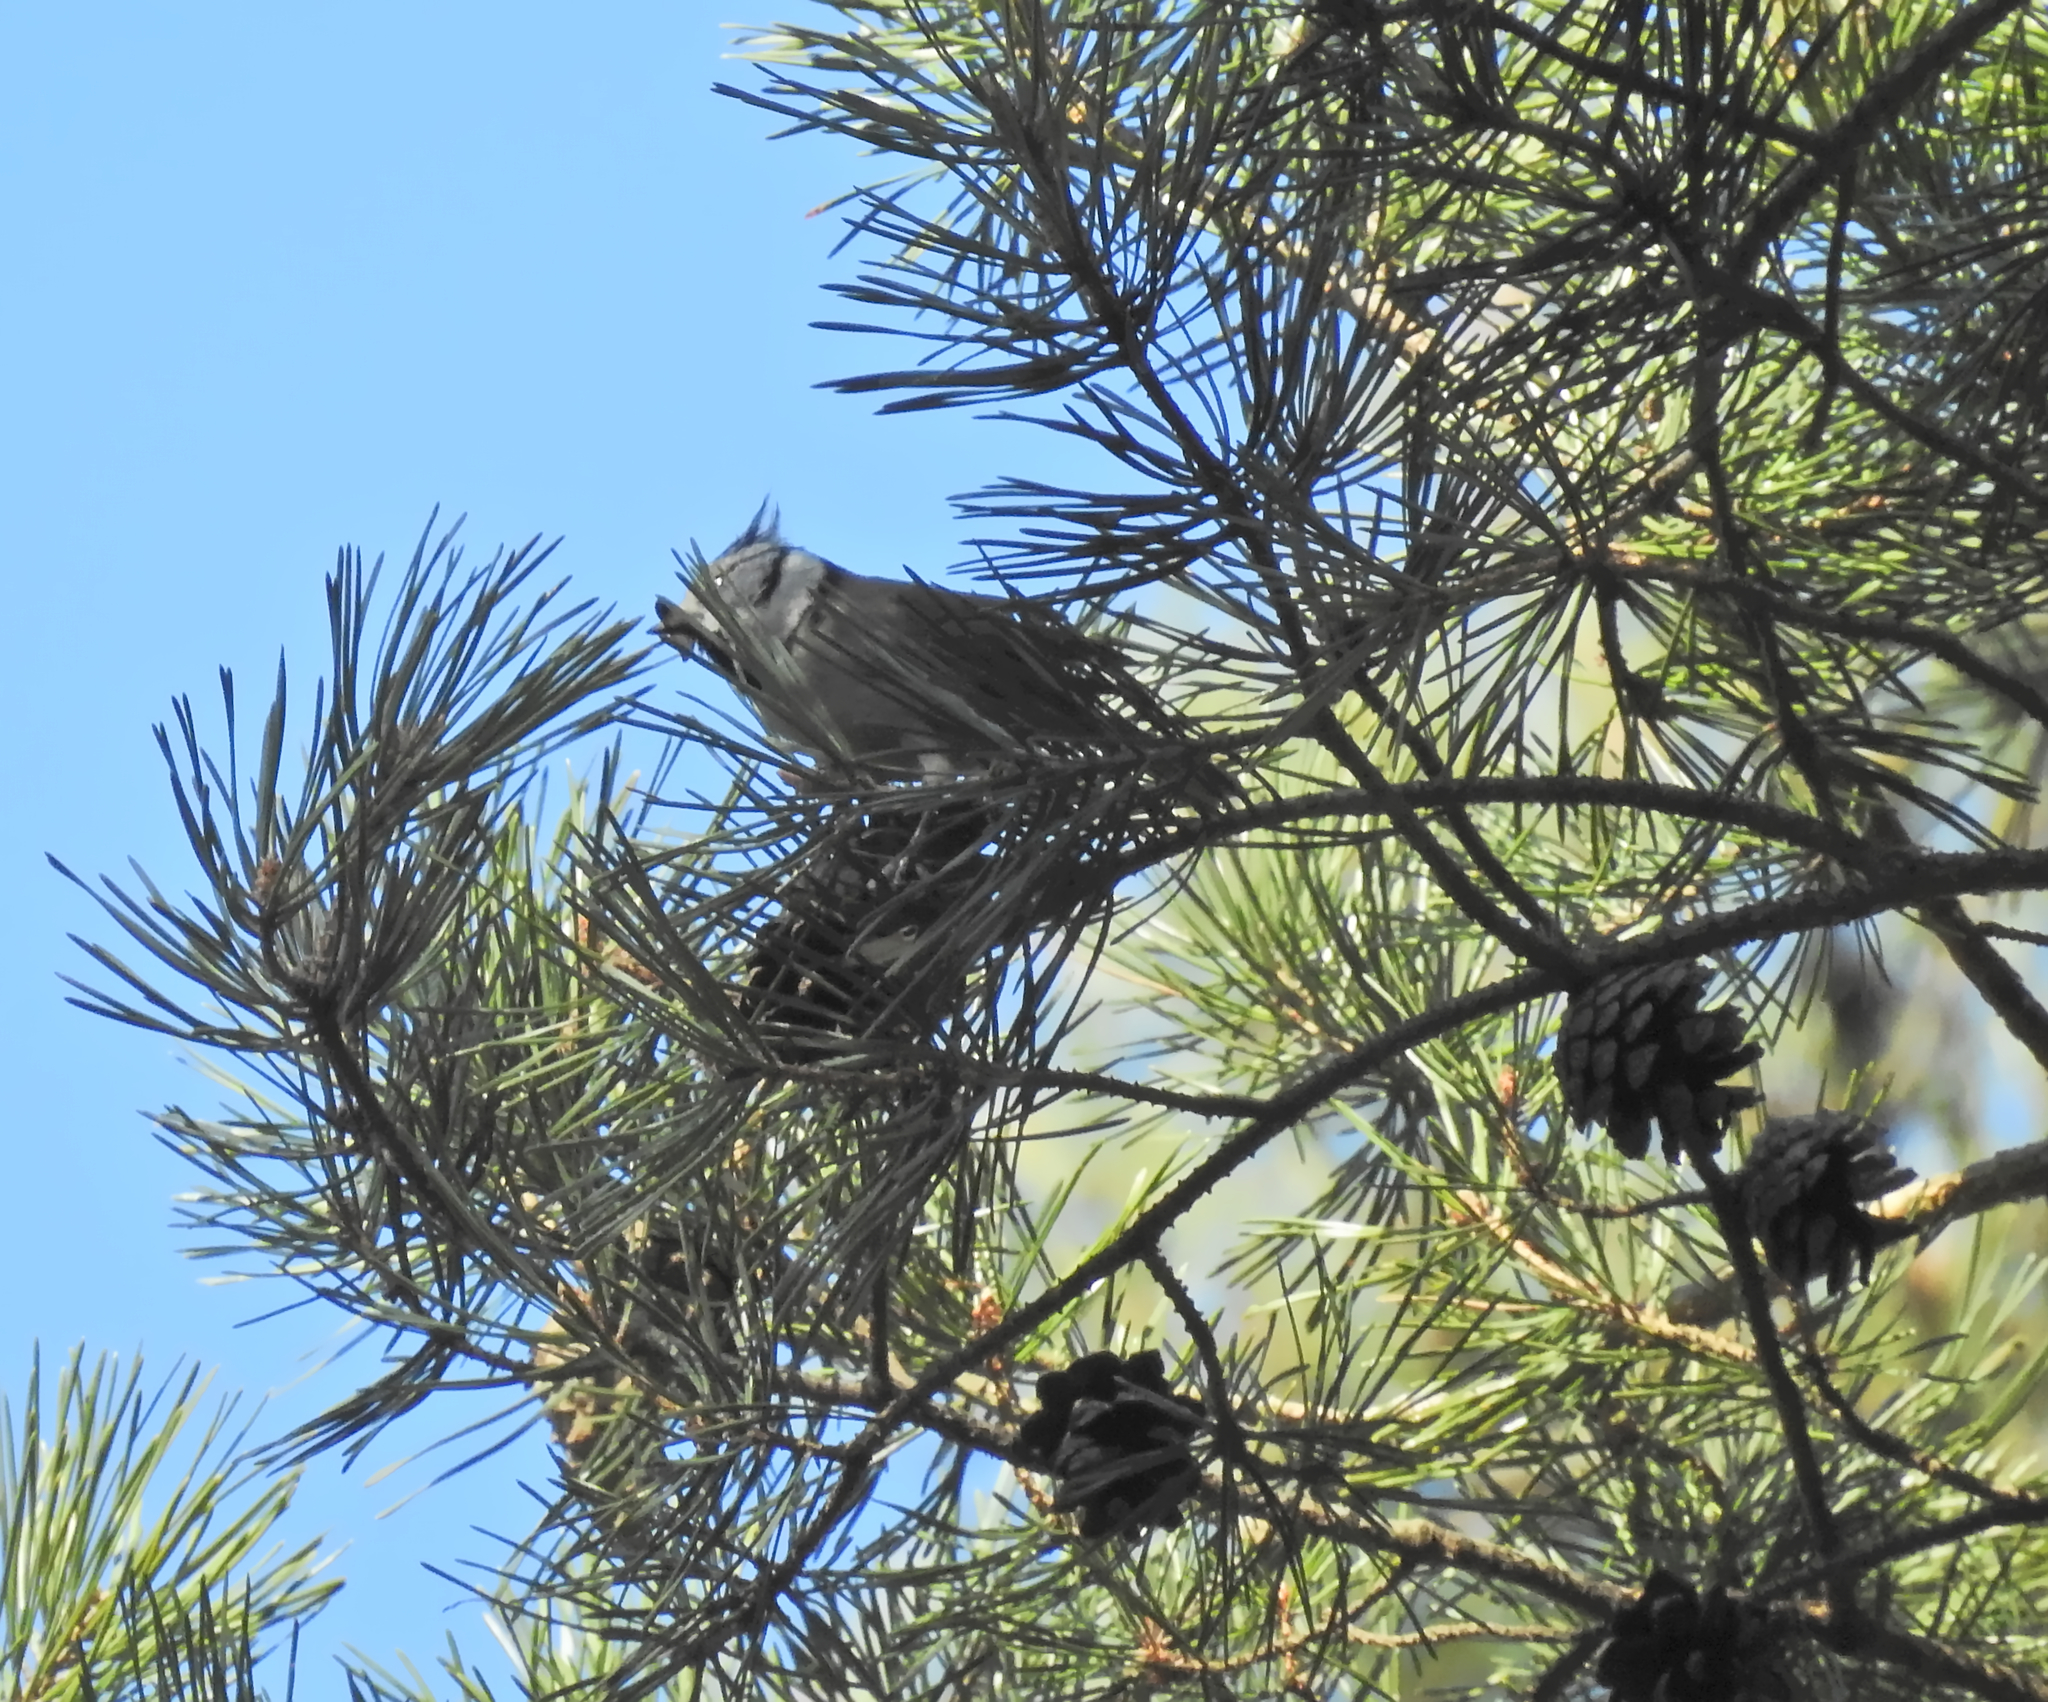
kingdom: Animalia
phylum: Chordata
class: Aves
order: Passeriformes
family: Paridae
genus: Lophophanes
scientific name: Lophophanes cristatus
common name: European crested tit
